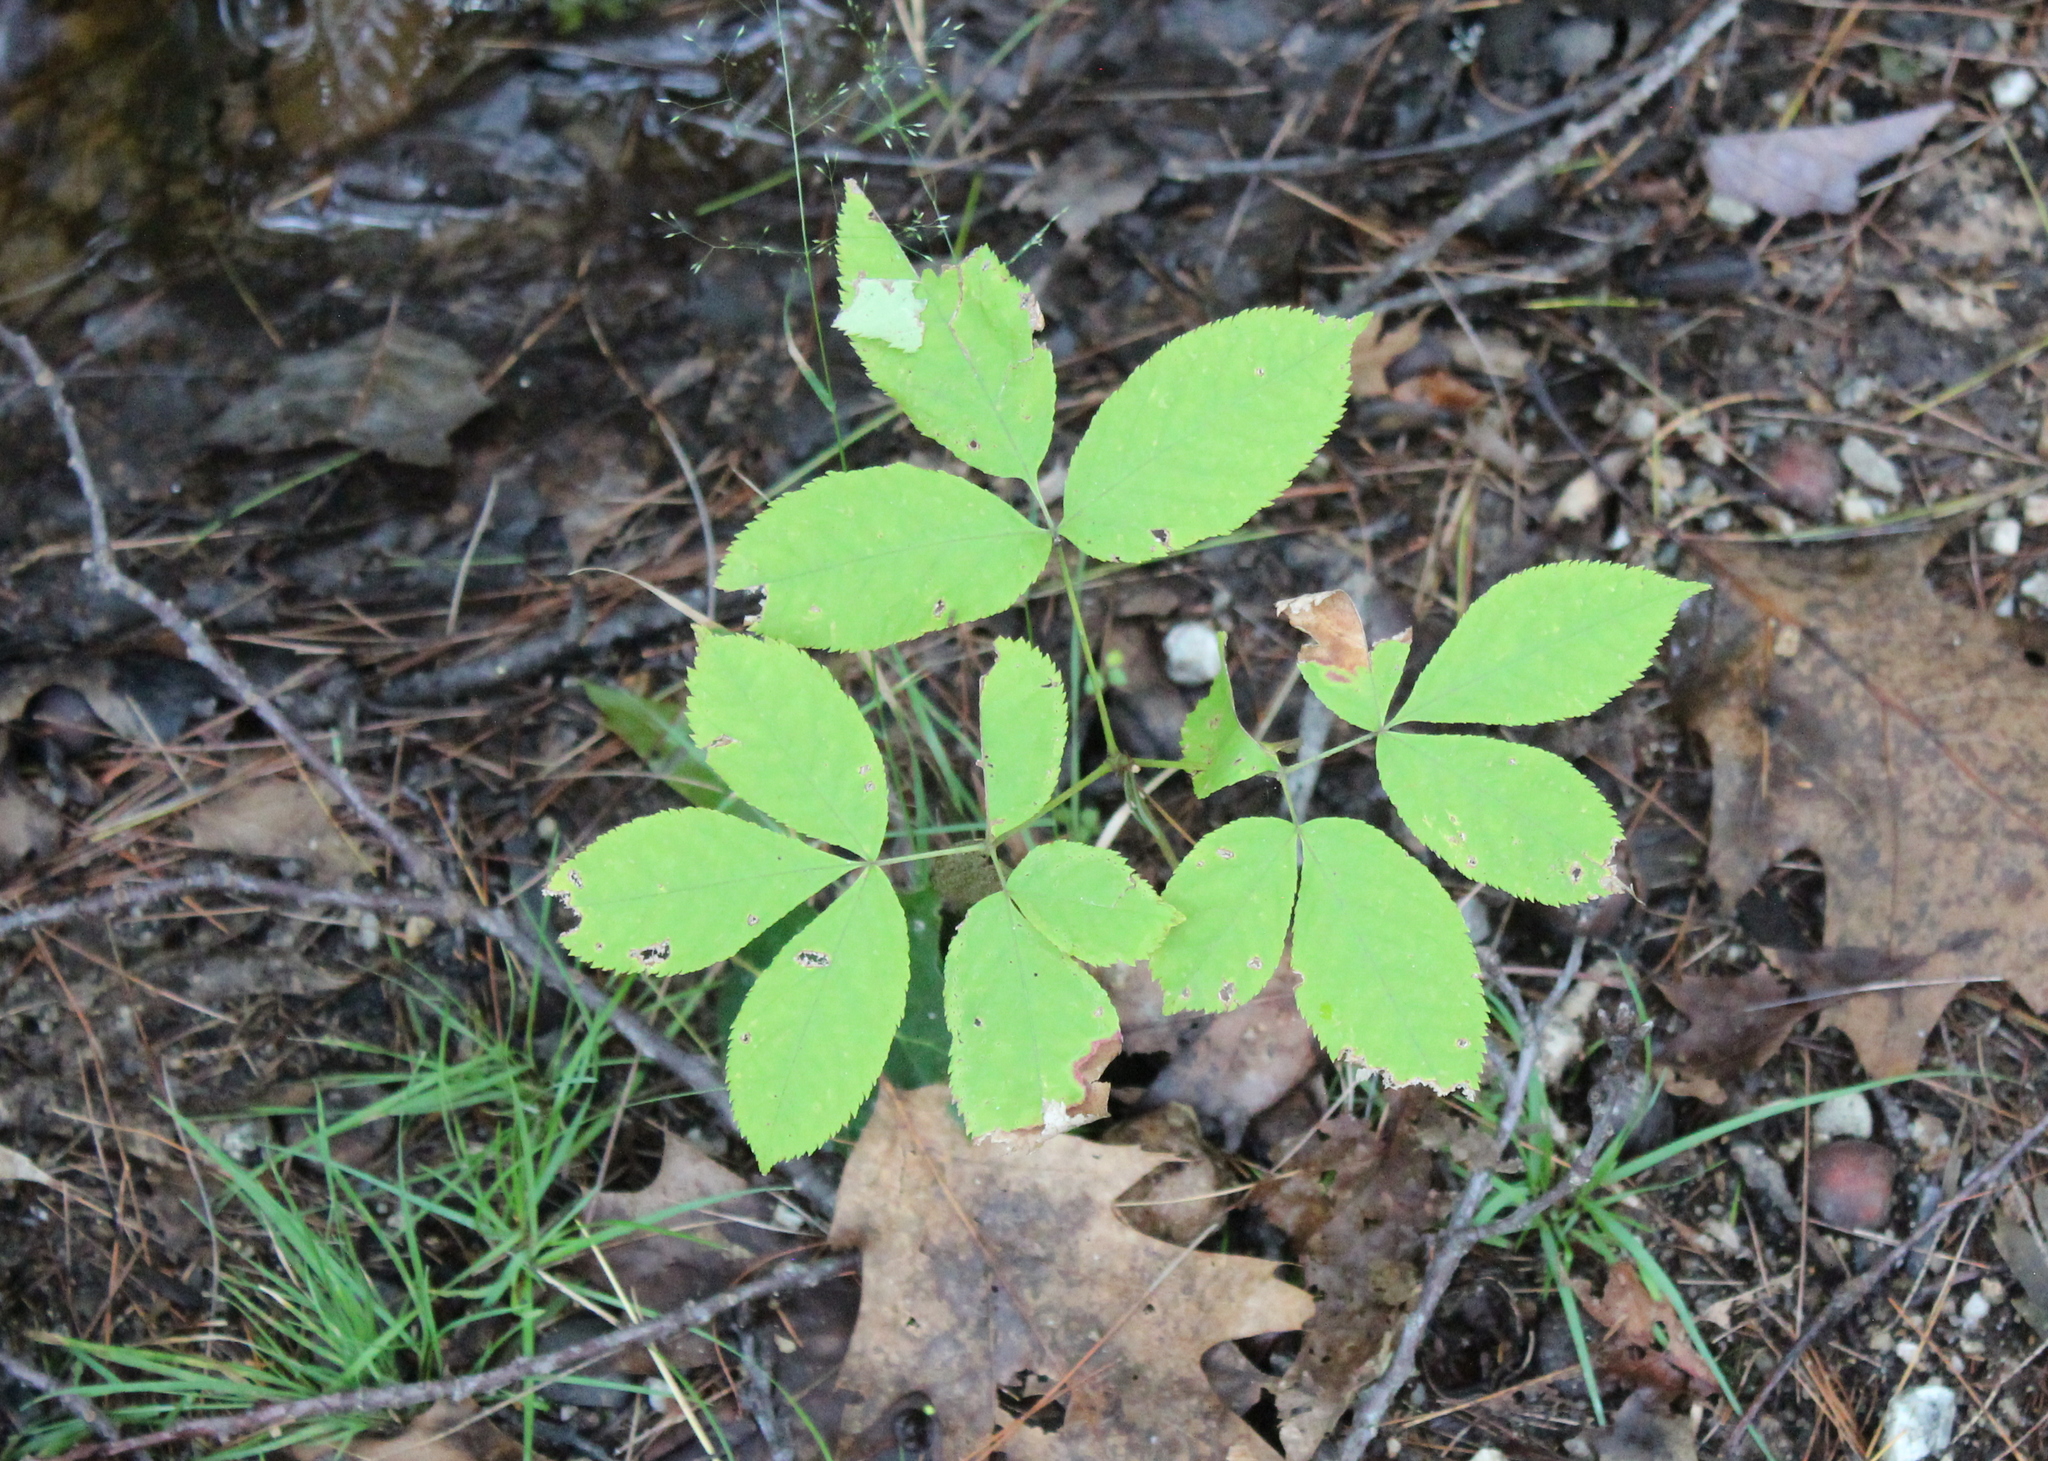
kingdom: Plantae
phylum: Tracheophyta
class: Magnoliopsida
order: Apiales
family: Araliaceae
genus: Aralia
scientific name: Aralia nudicaulis
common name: Wild sarsaparilla
